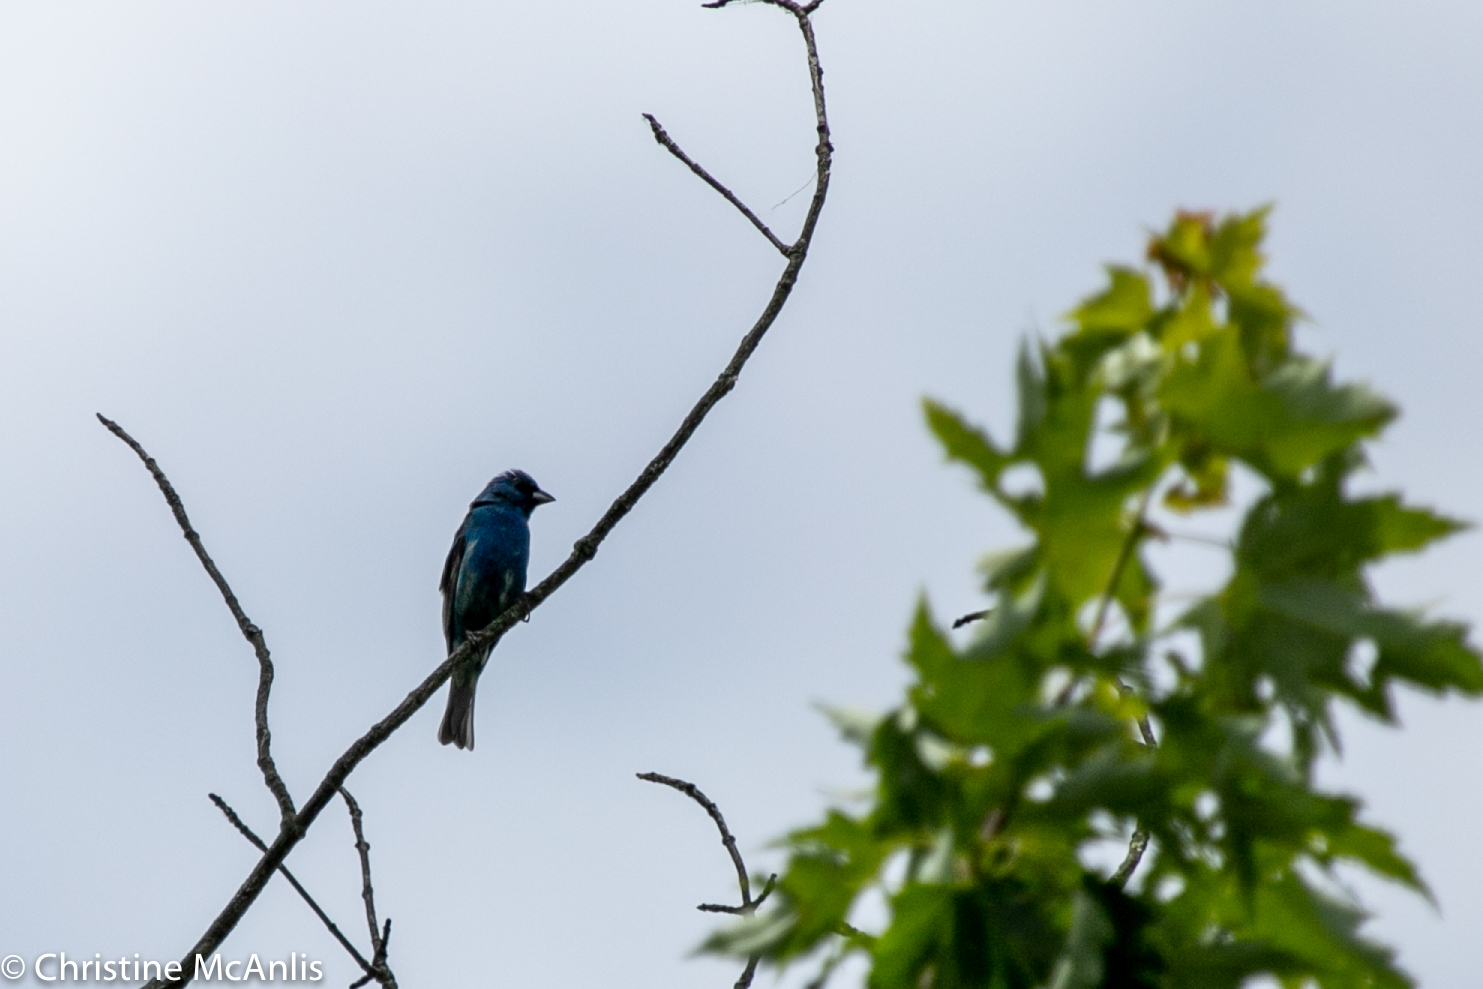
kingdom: Animalia
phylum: Chordata
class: Aves
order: Passeriformes
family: Cardinalidae
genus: Passerina
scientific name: Passerina cyanea
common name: Indigo bunting
